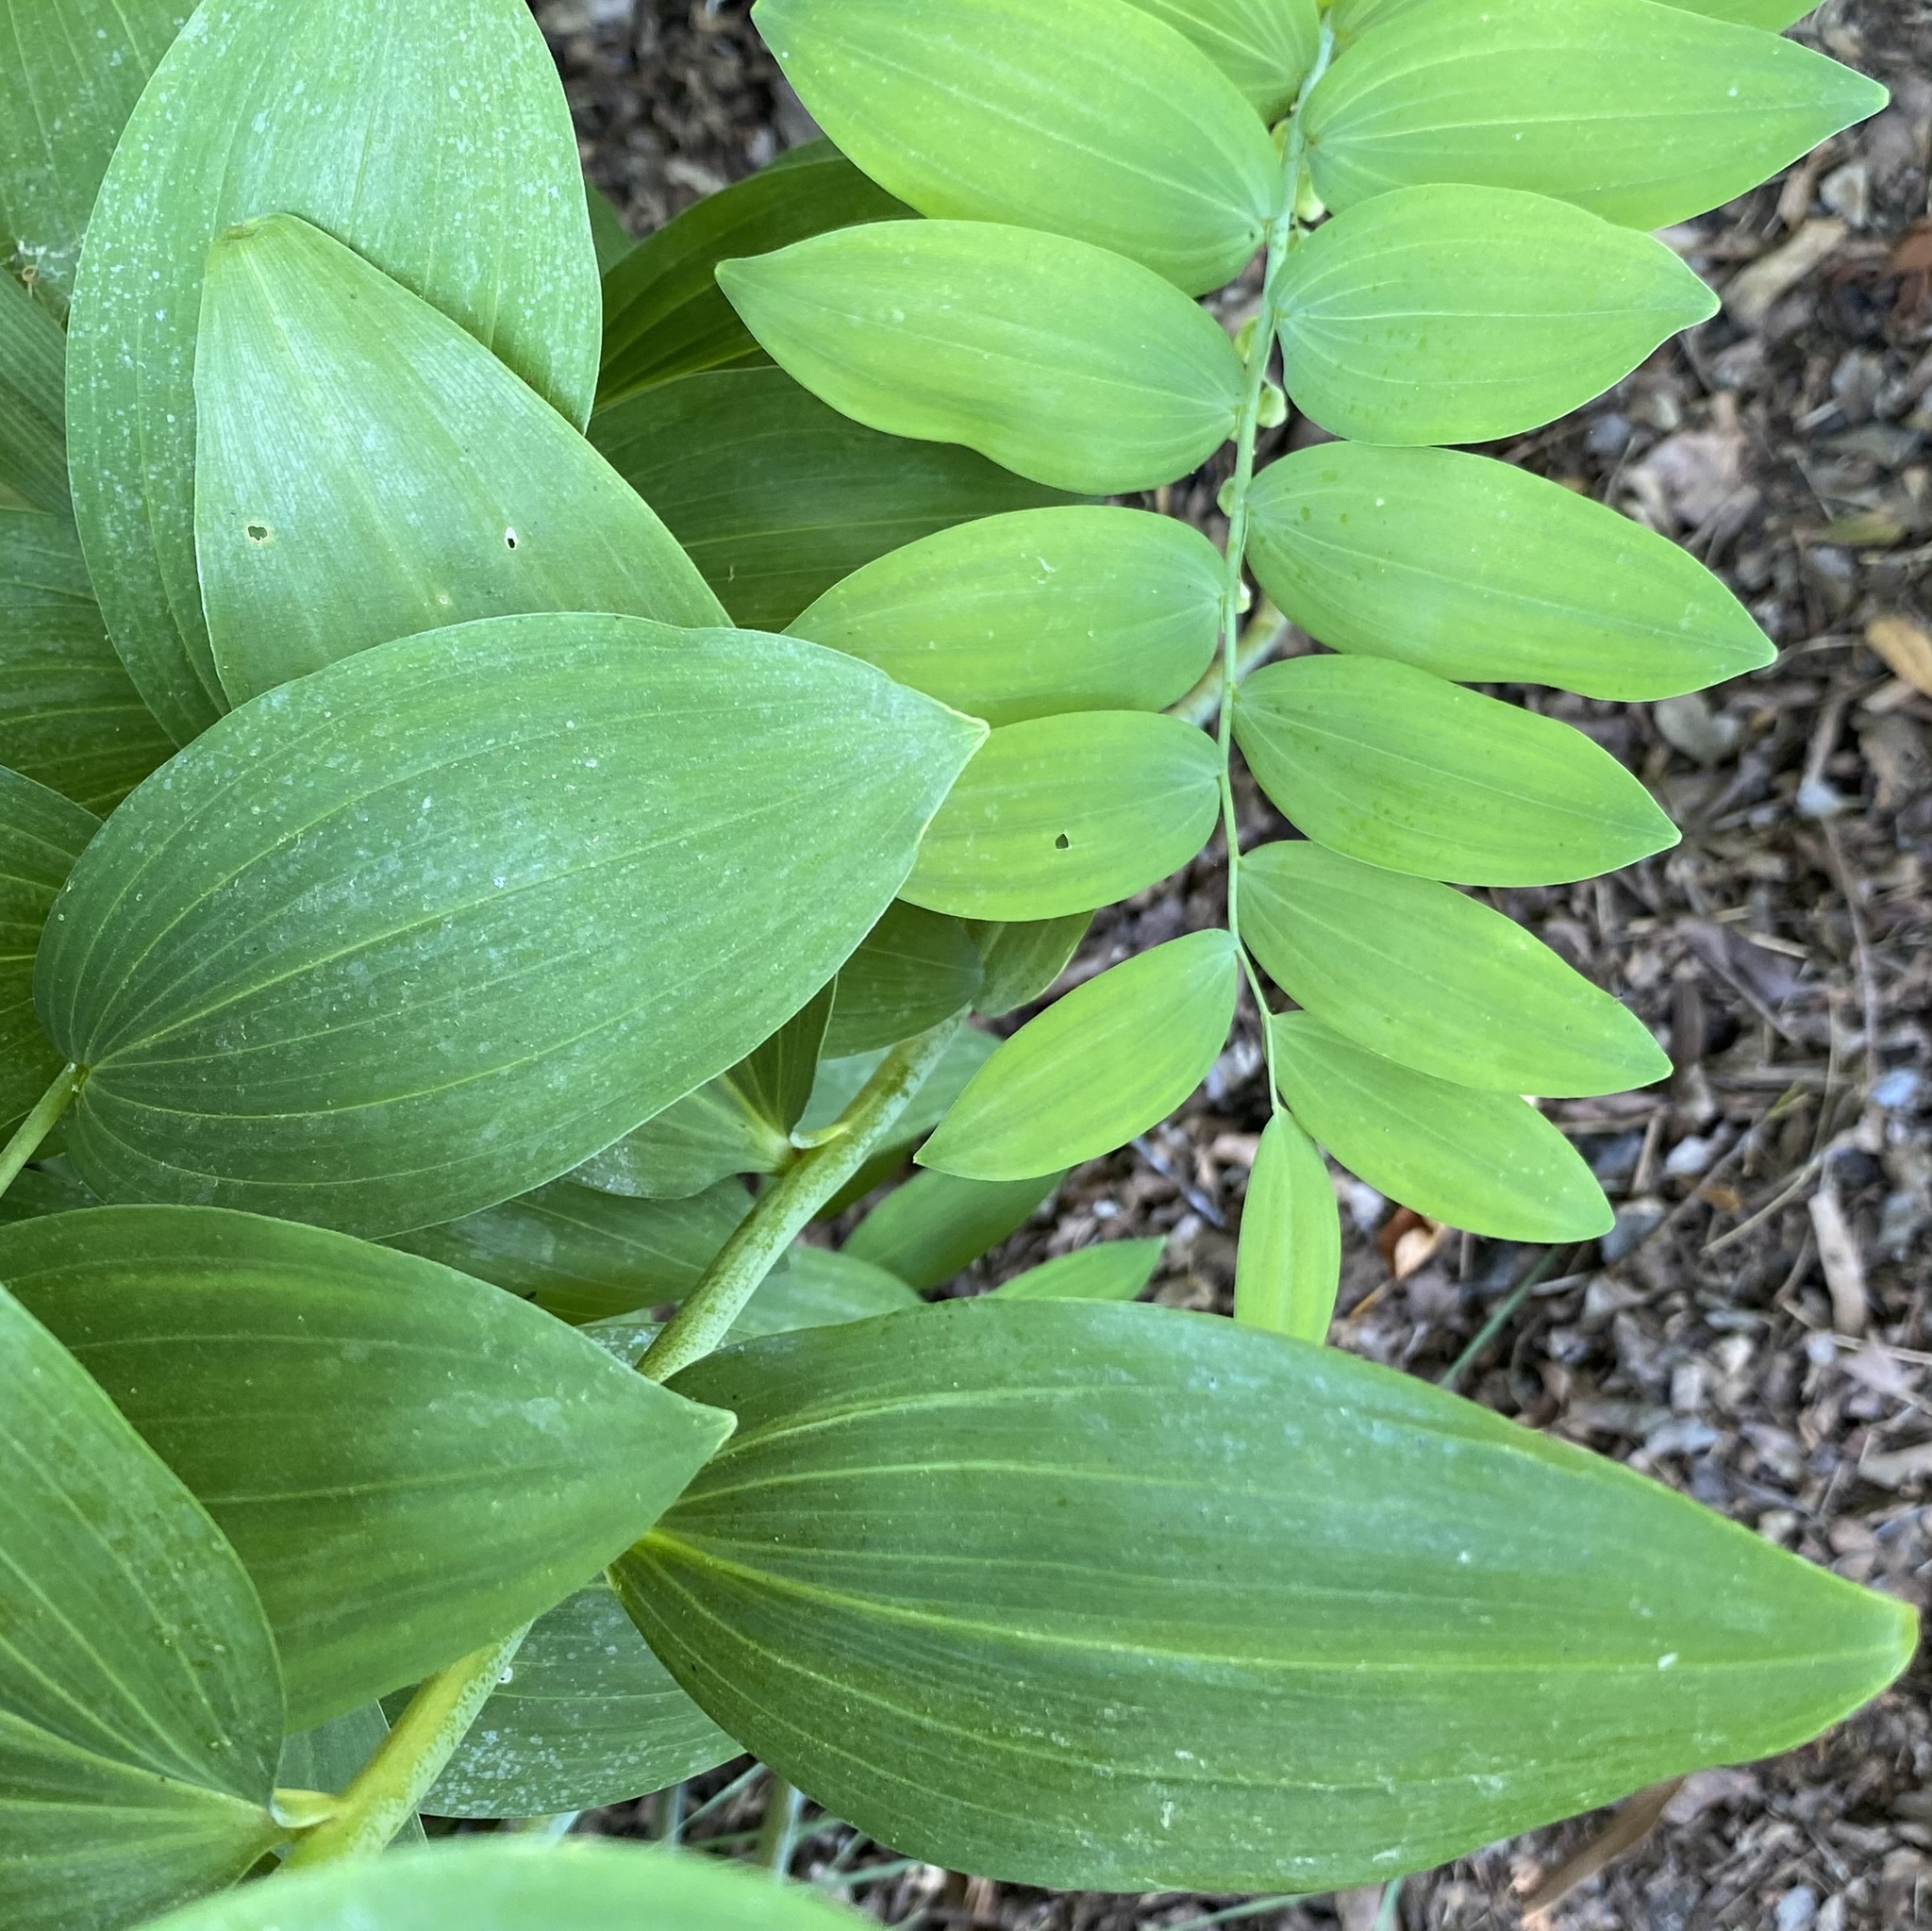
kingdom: Plantae
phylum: Tracheophyta
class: Liliopsida
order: Asparagales
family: Asparagaceae
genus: Polygonatum
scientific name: Polygonatum biflorum
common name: American solomon's-seal
